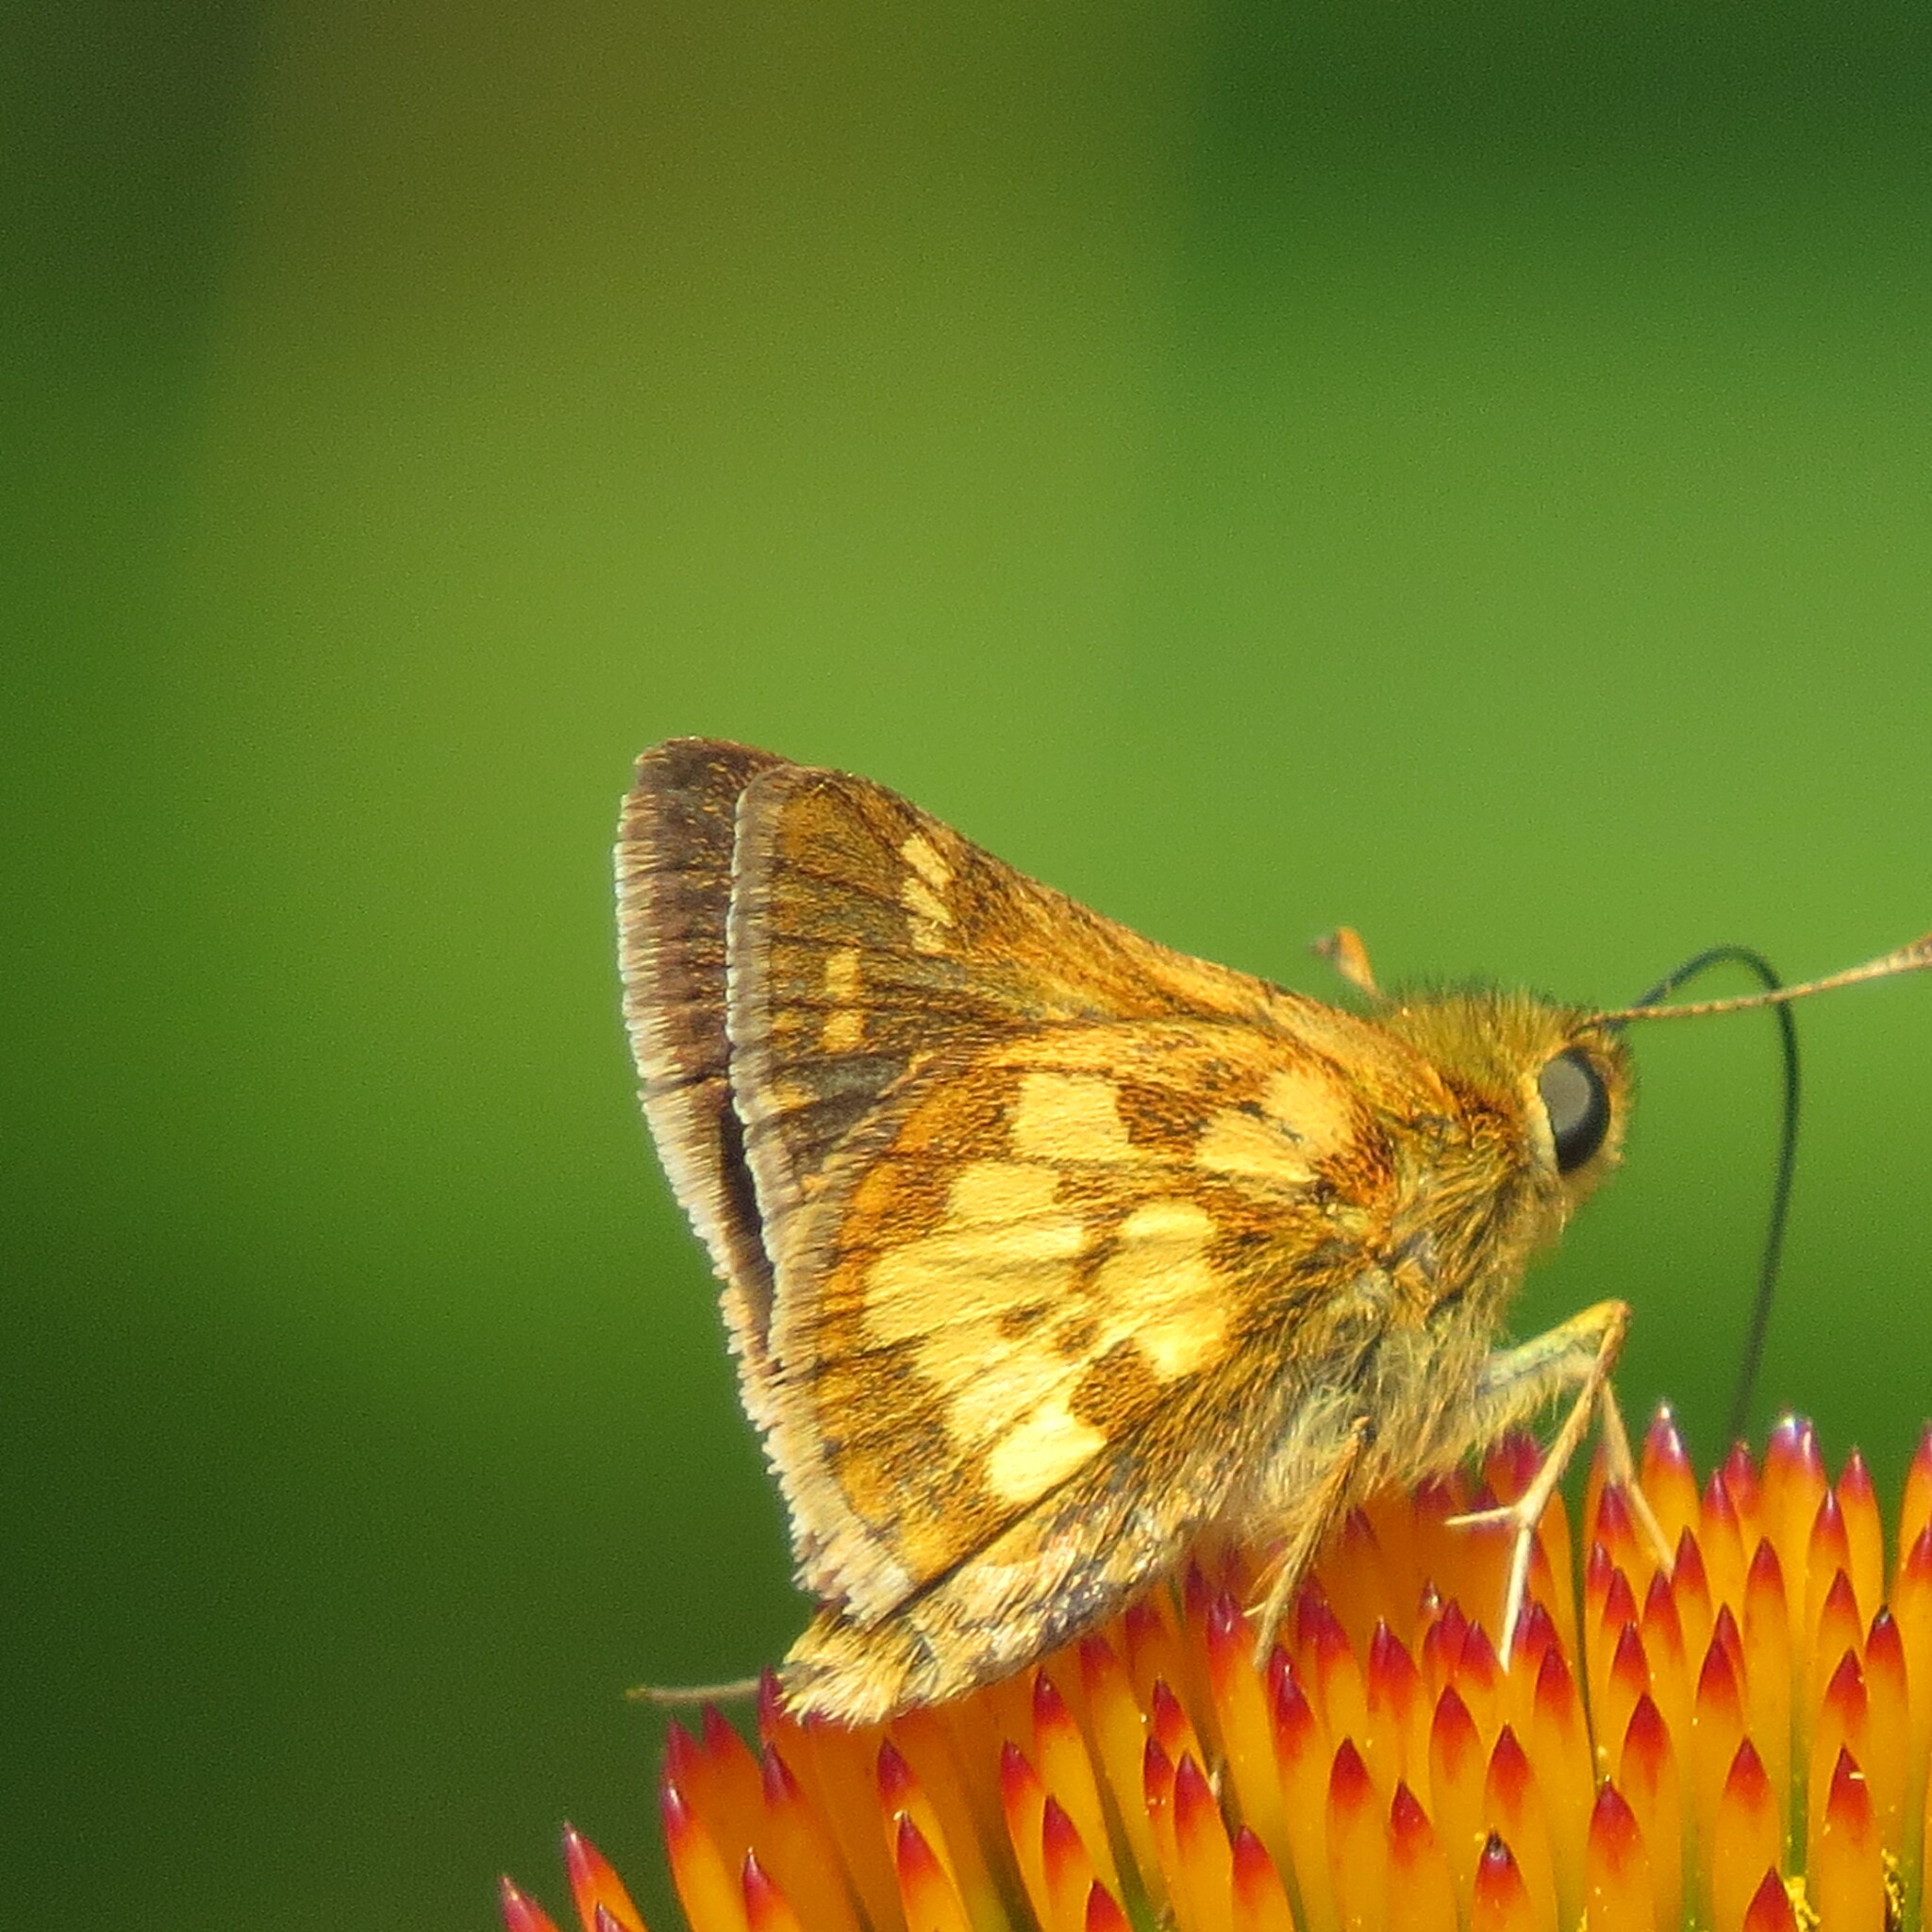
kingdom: Animalia
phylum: Arthropoda
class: Insecta
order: Lepidoptera
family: Hesperiidae
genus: Polites
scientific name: Polites coras
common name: Peck's skipper
